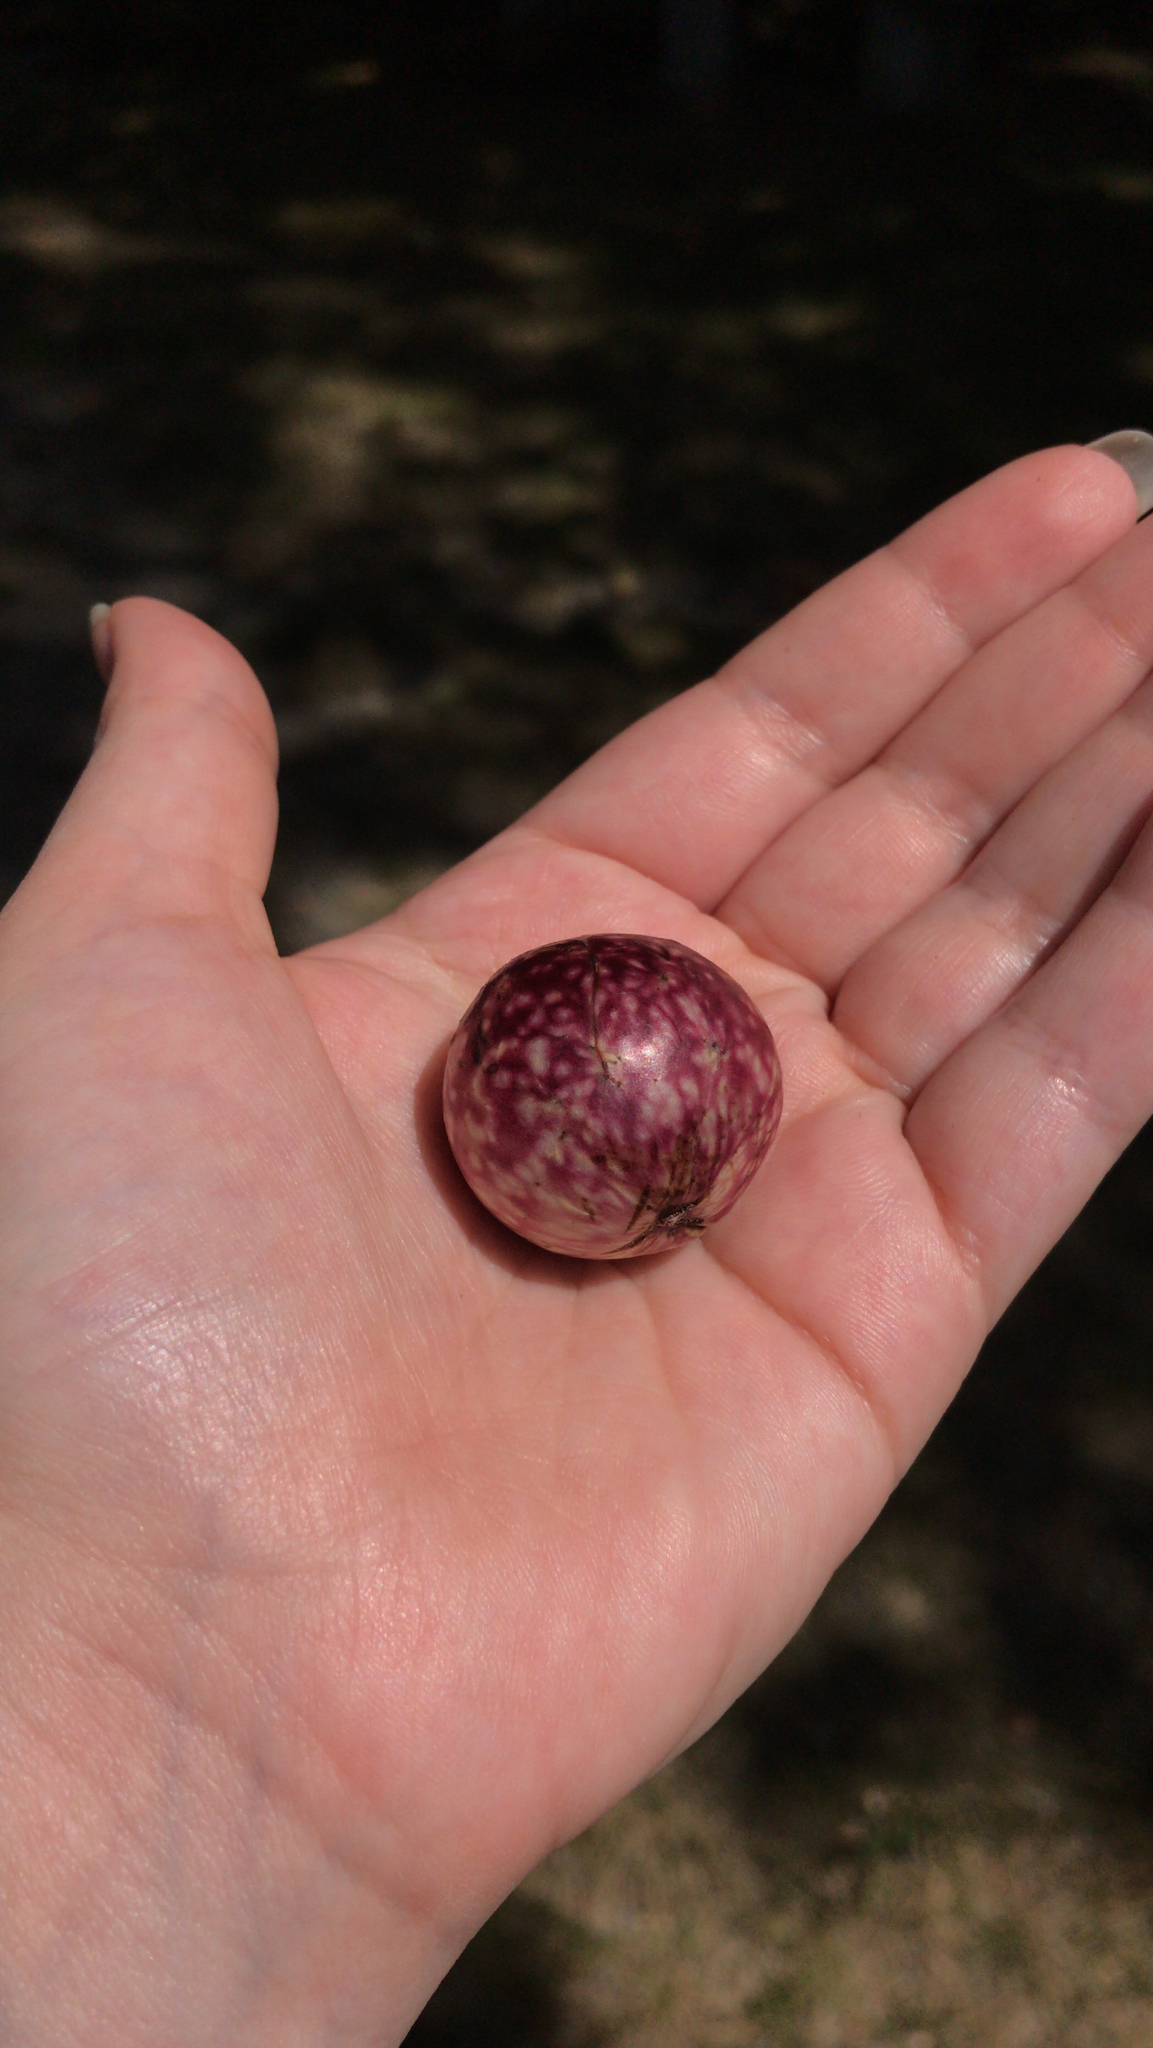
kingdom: Animalia
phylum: Arthropoda
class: Insecta
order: Hymenoptera
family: Cynipidae
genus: Amphibolips
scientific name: Amphibolips
